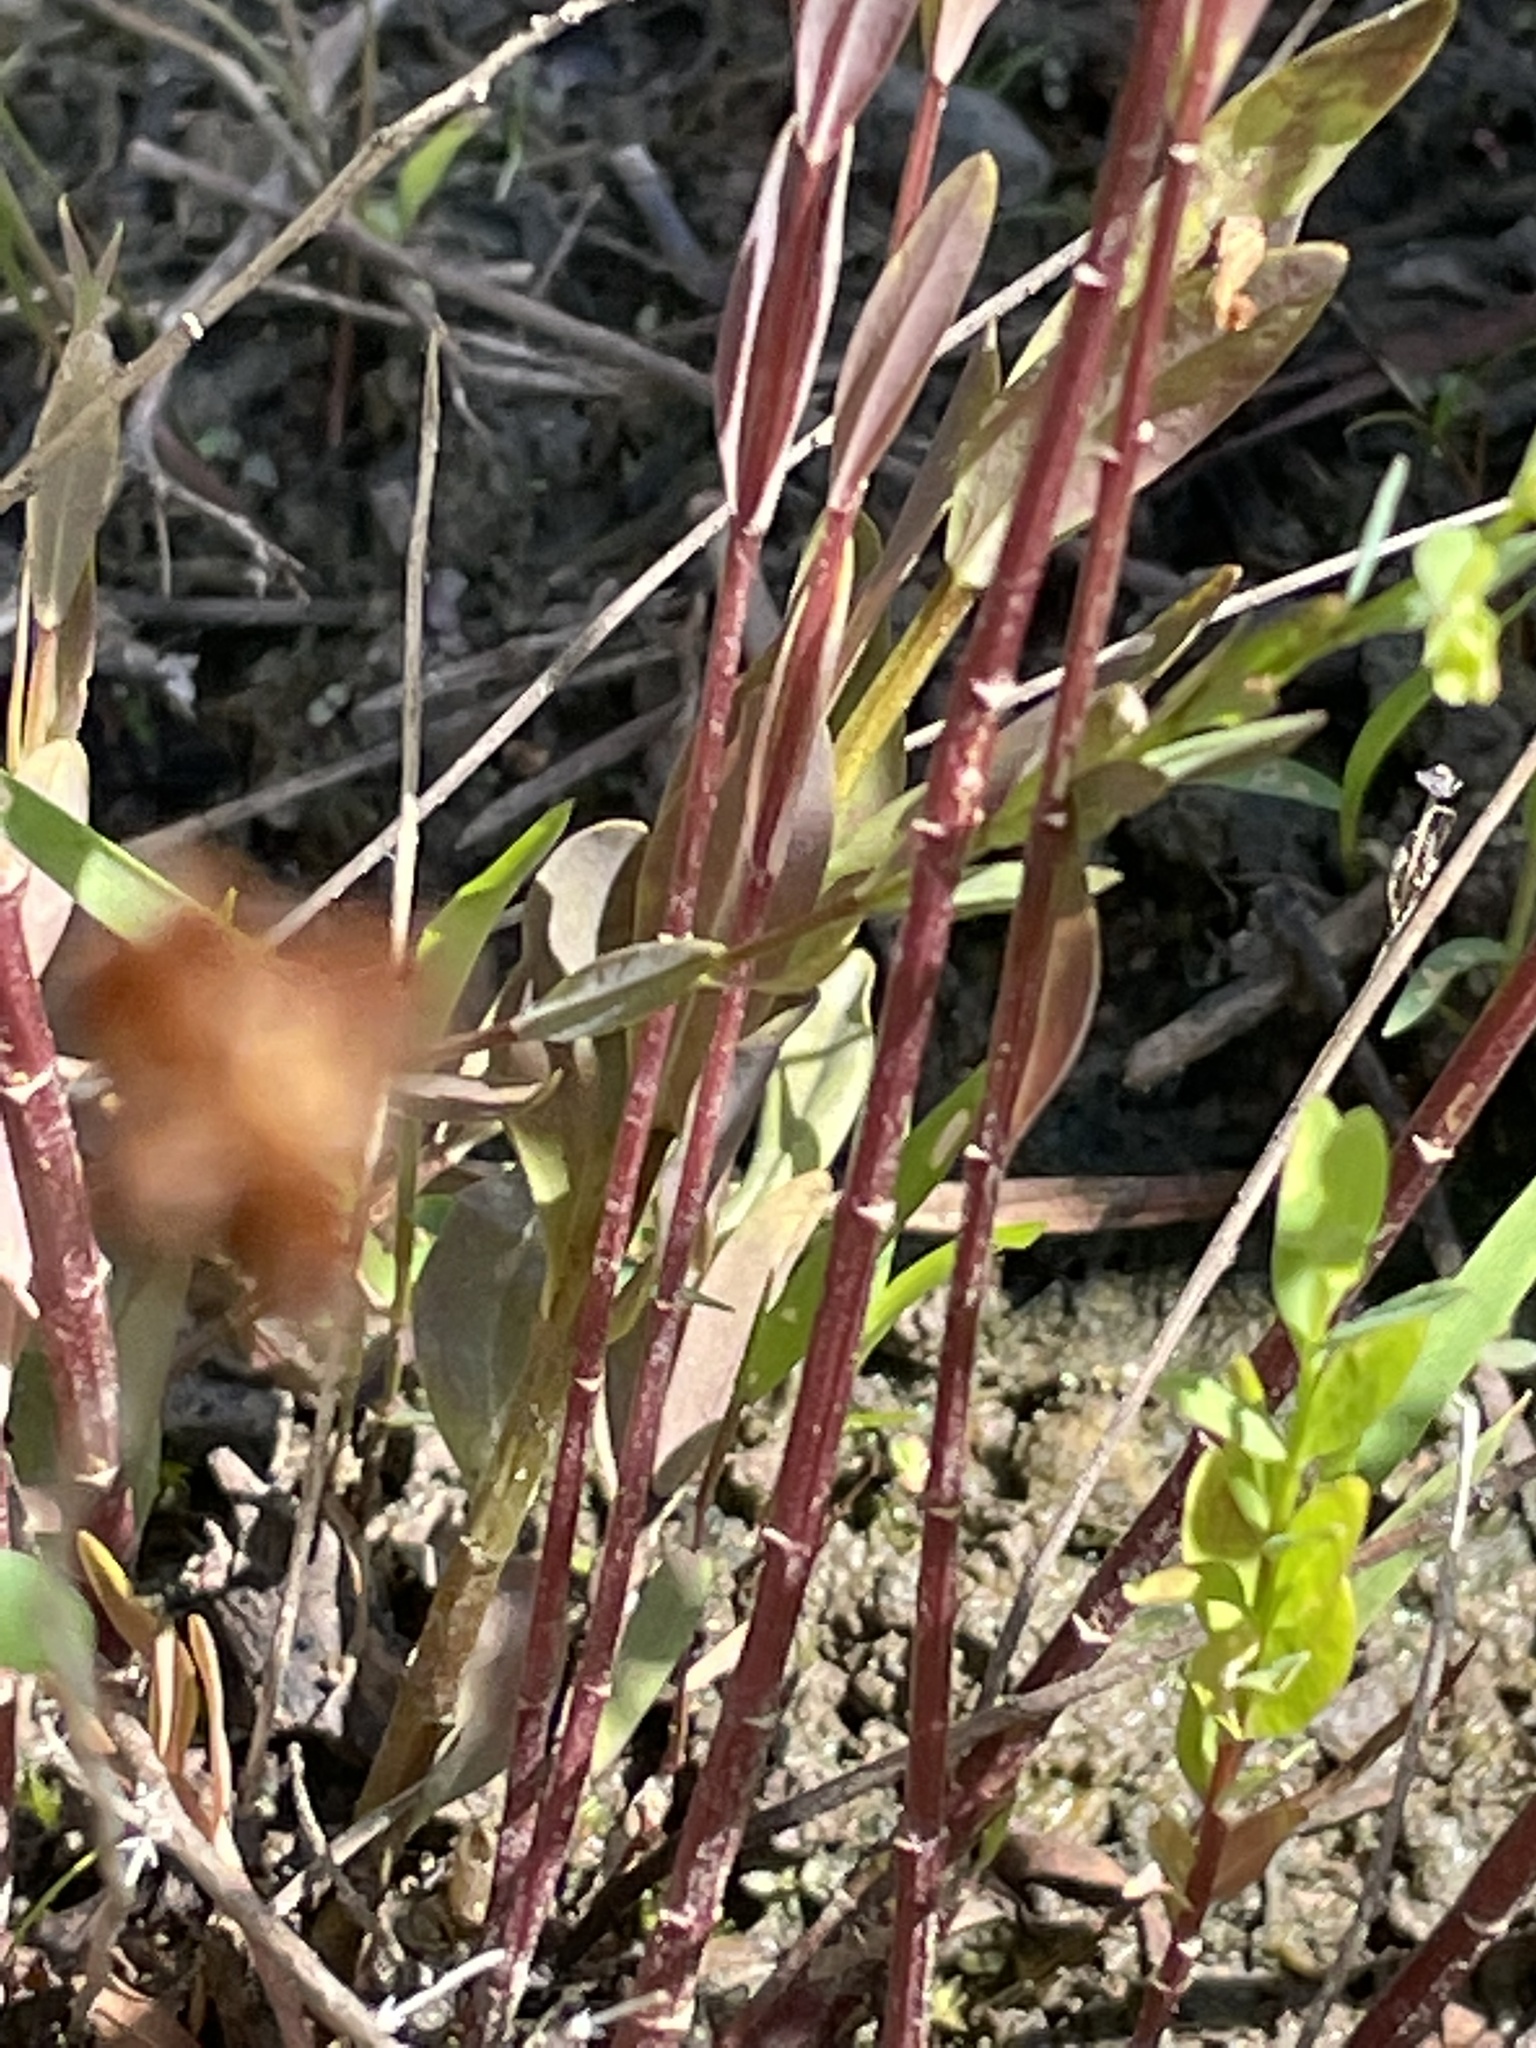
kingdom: Plantae
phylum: Tracheophyta
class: Magnoliopsida
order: Malpighiales
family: Linaceae
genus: Linum
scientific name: Linum striatum
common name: Ridged yellow flax
